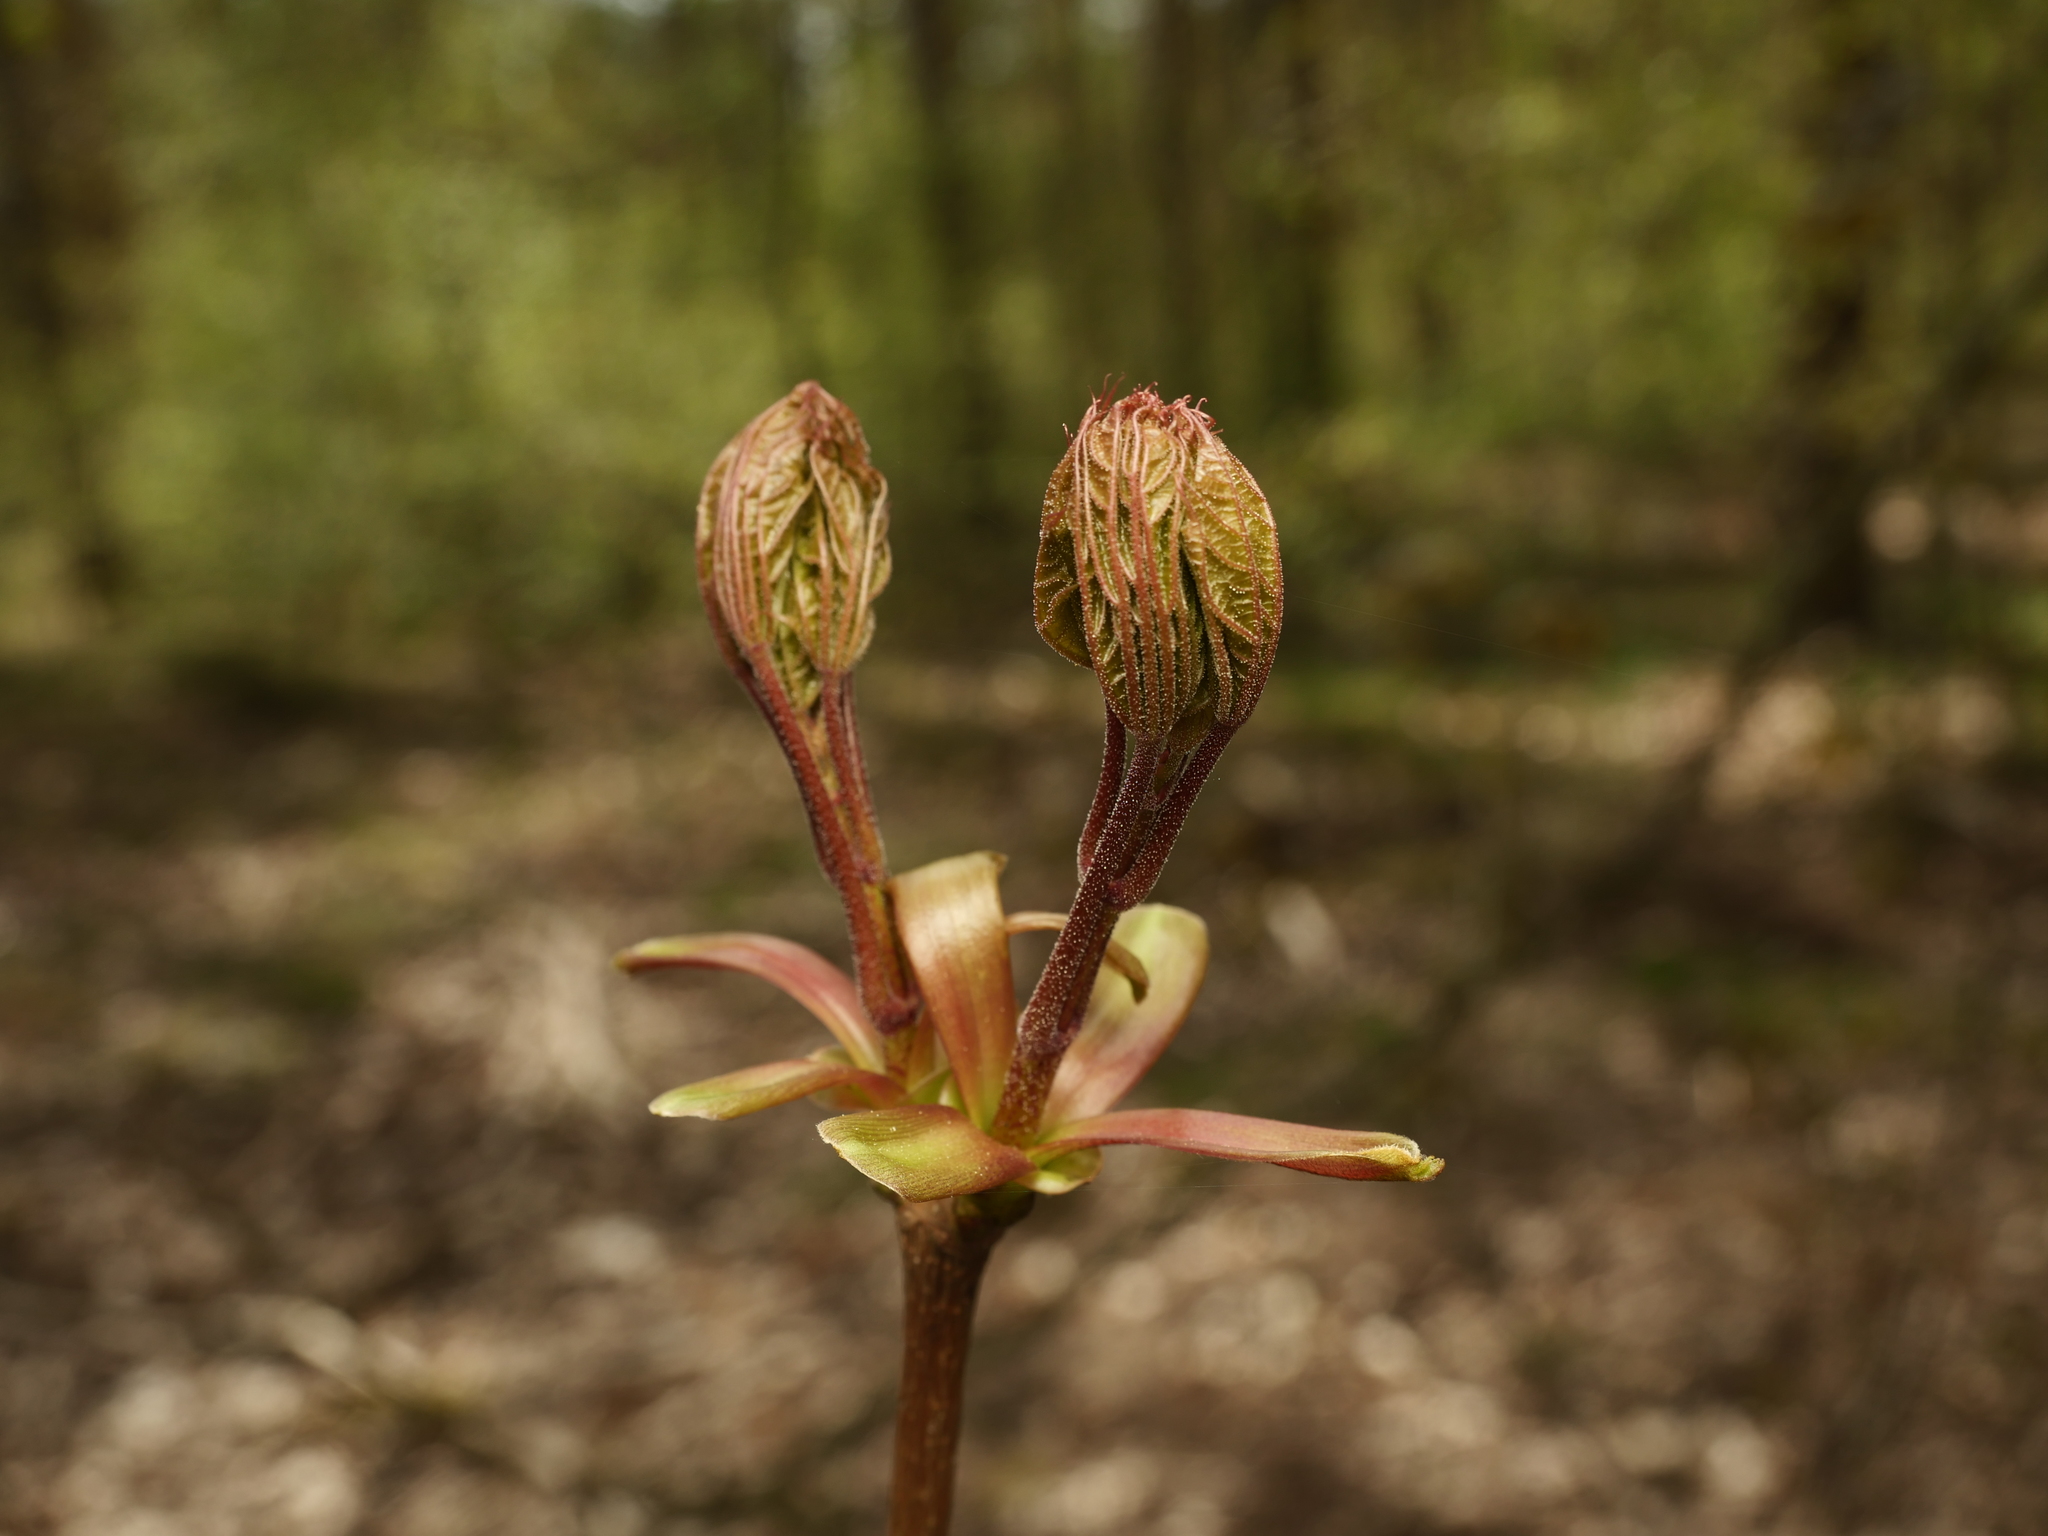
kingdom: Plantae
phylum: Tracheophyta
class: Magnoliopsida
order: Sapindales
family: Sapindaceae
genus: Acer
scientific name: Acer platanoides
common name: Norway maple
